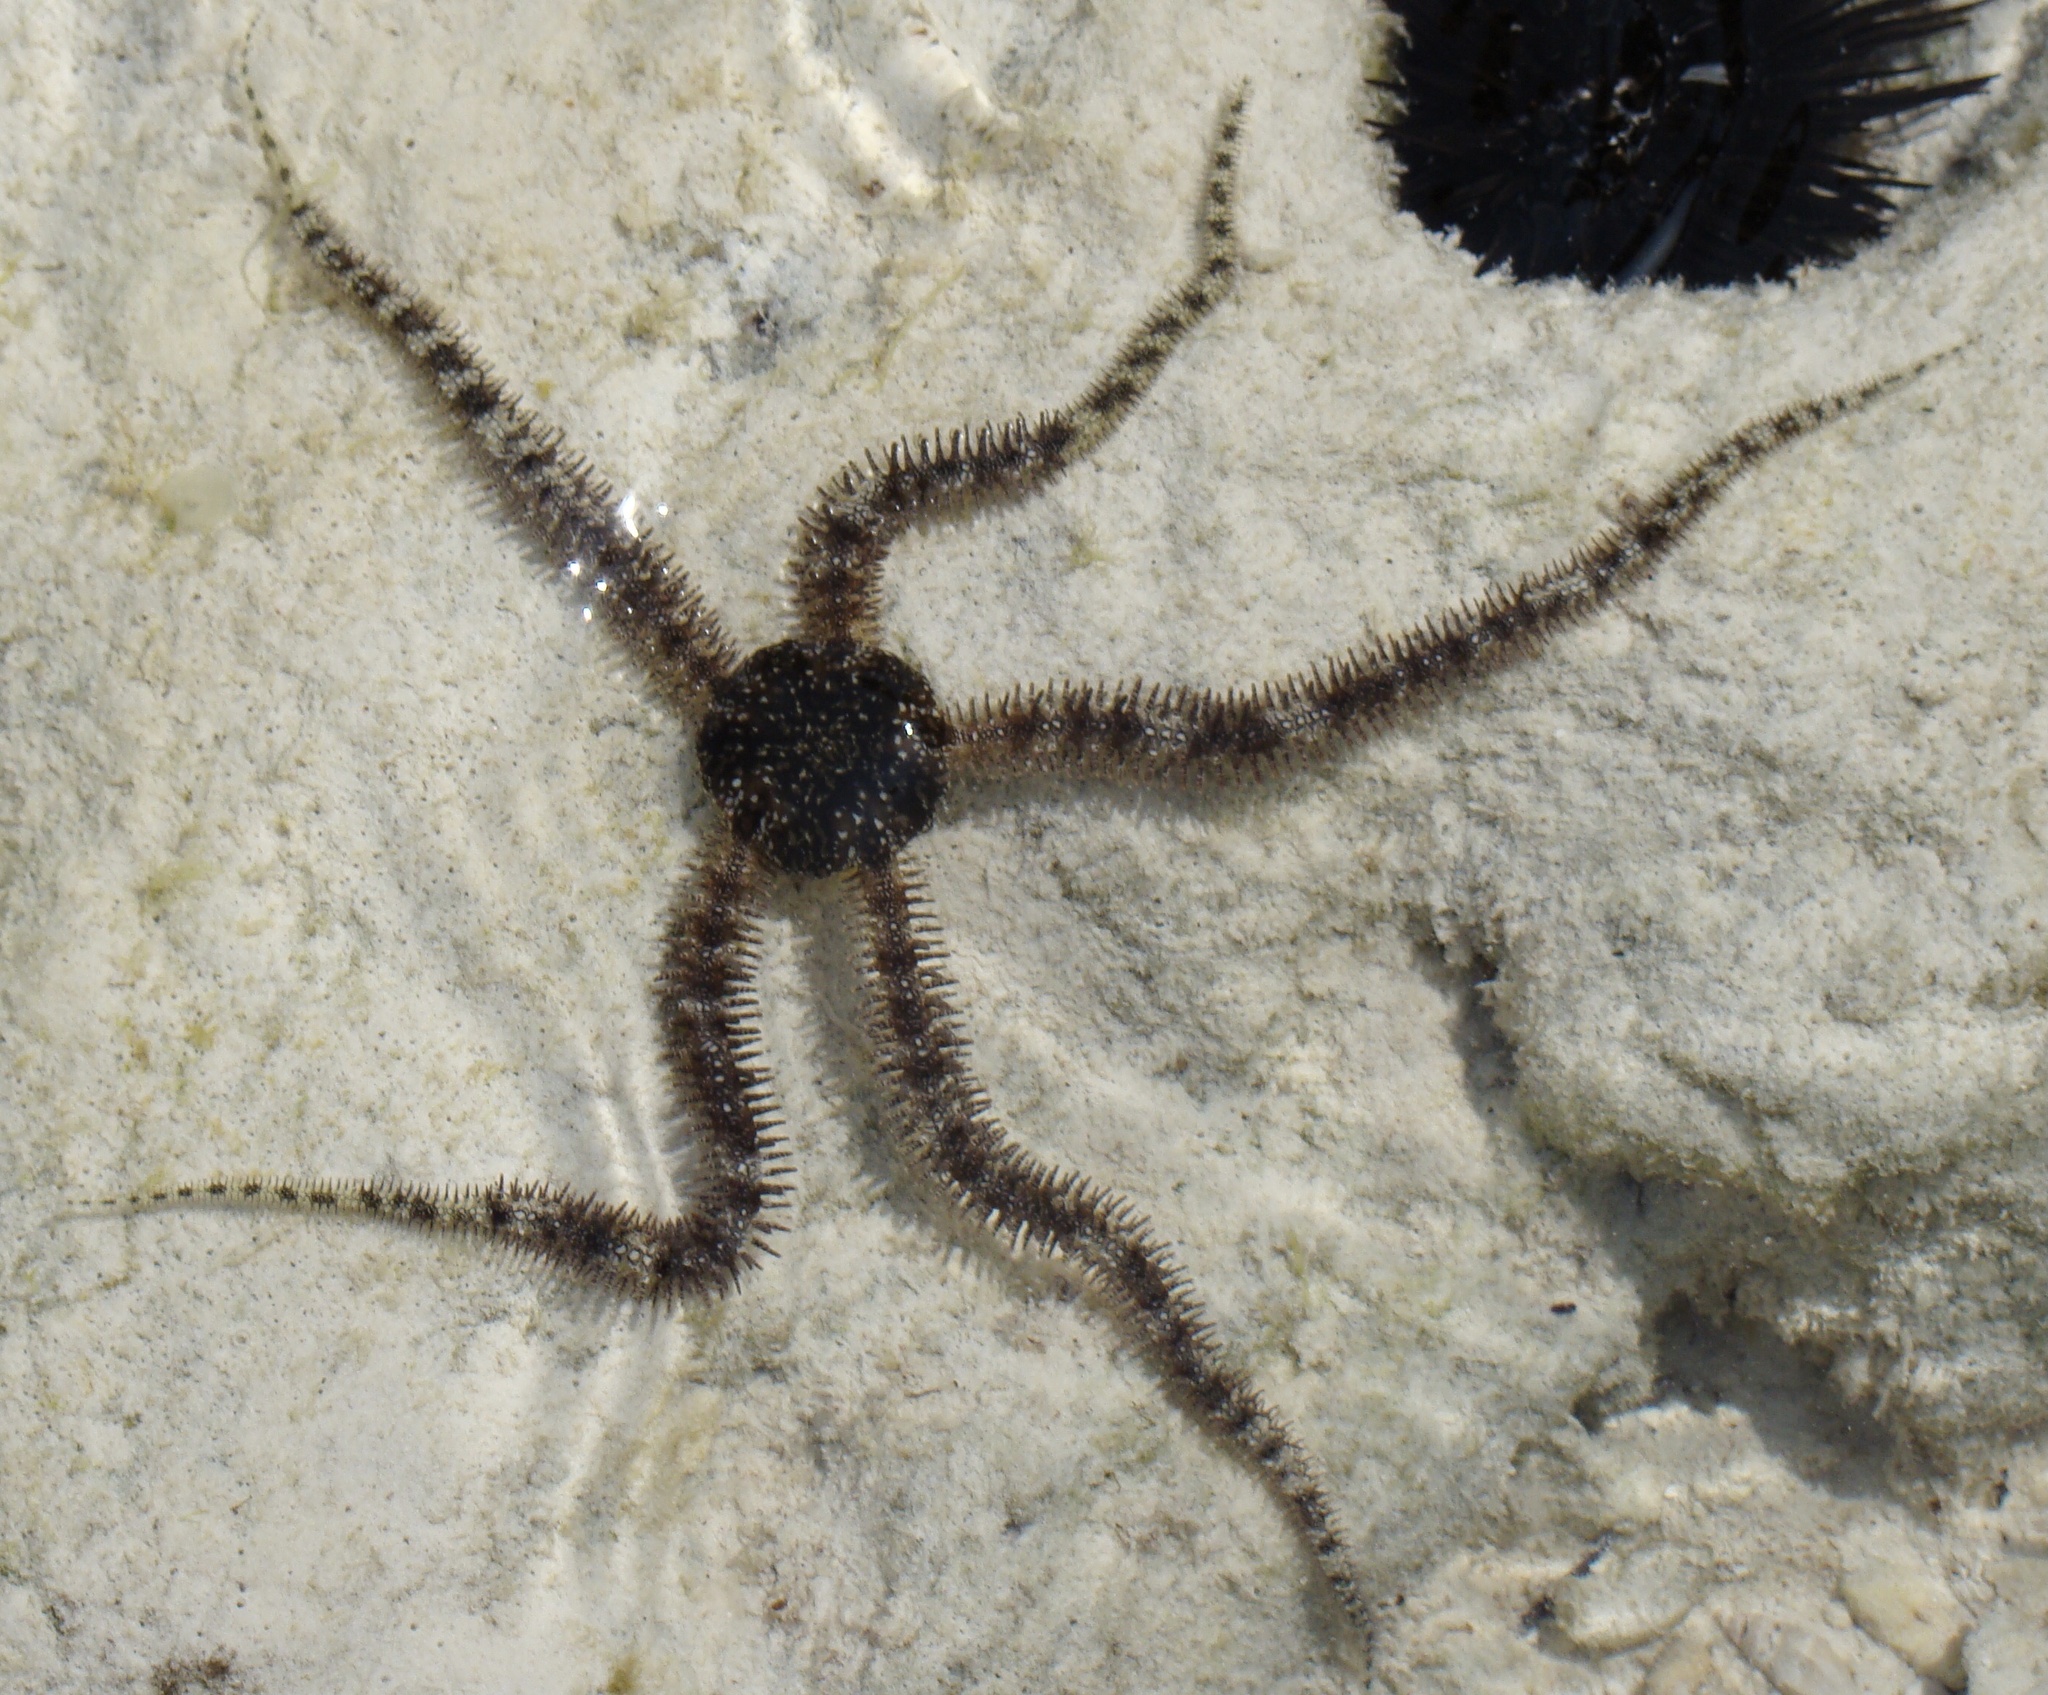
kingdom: Animalia
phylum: Echinodermata
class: Ophiuroidea
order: Ophiacanthida
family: Ophiocomidae
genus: Ophiocoma
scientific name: Ophiocoma scolopendrina
